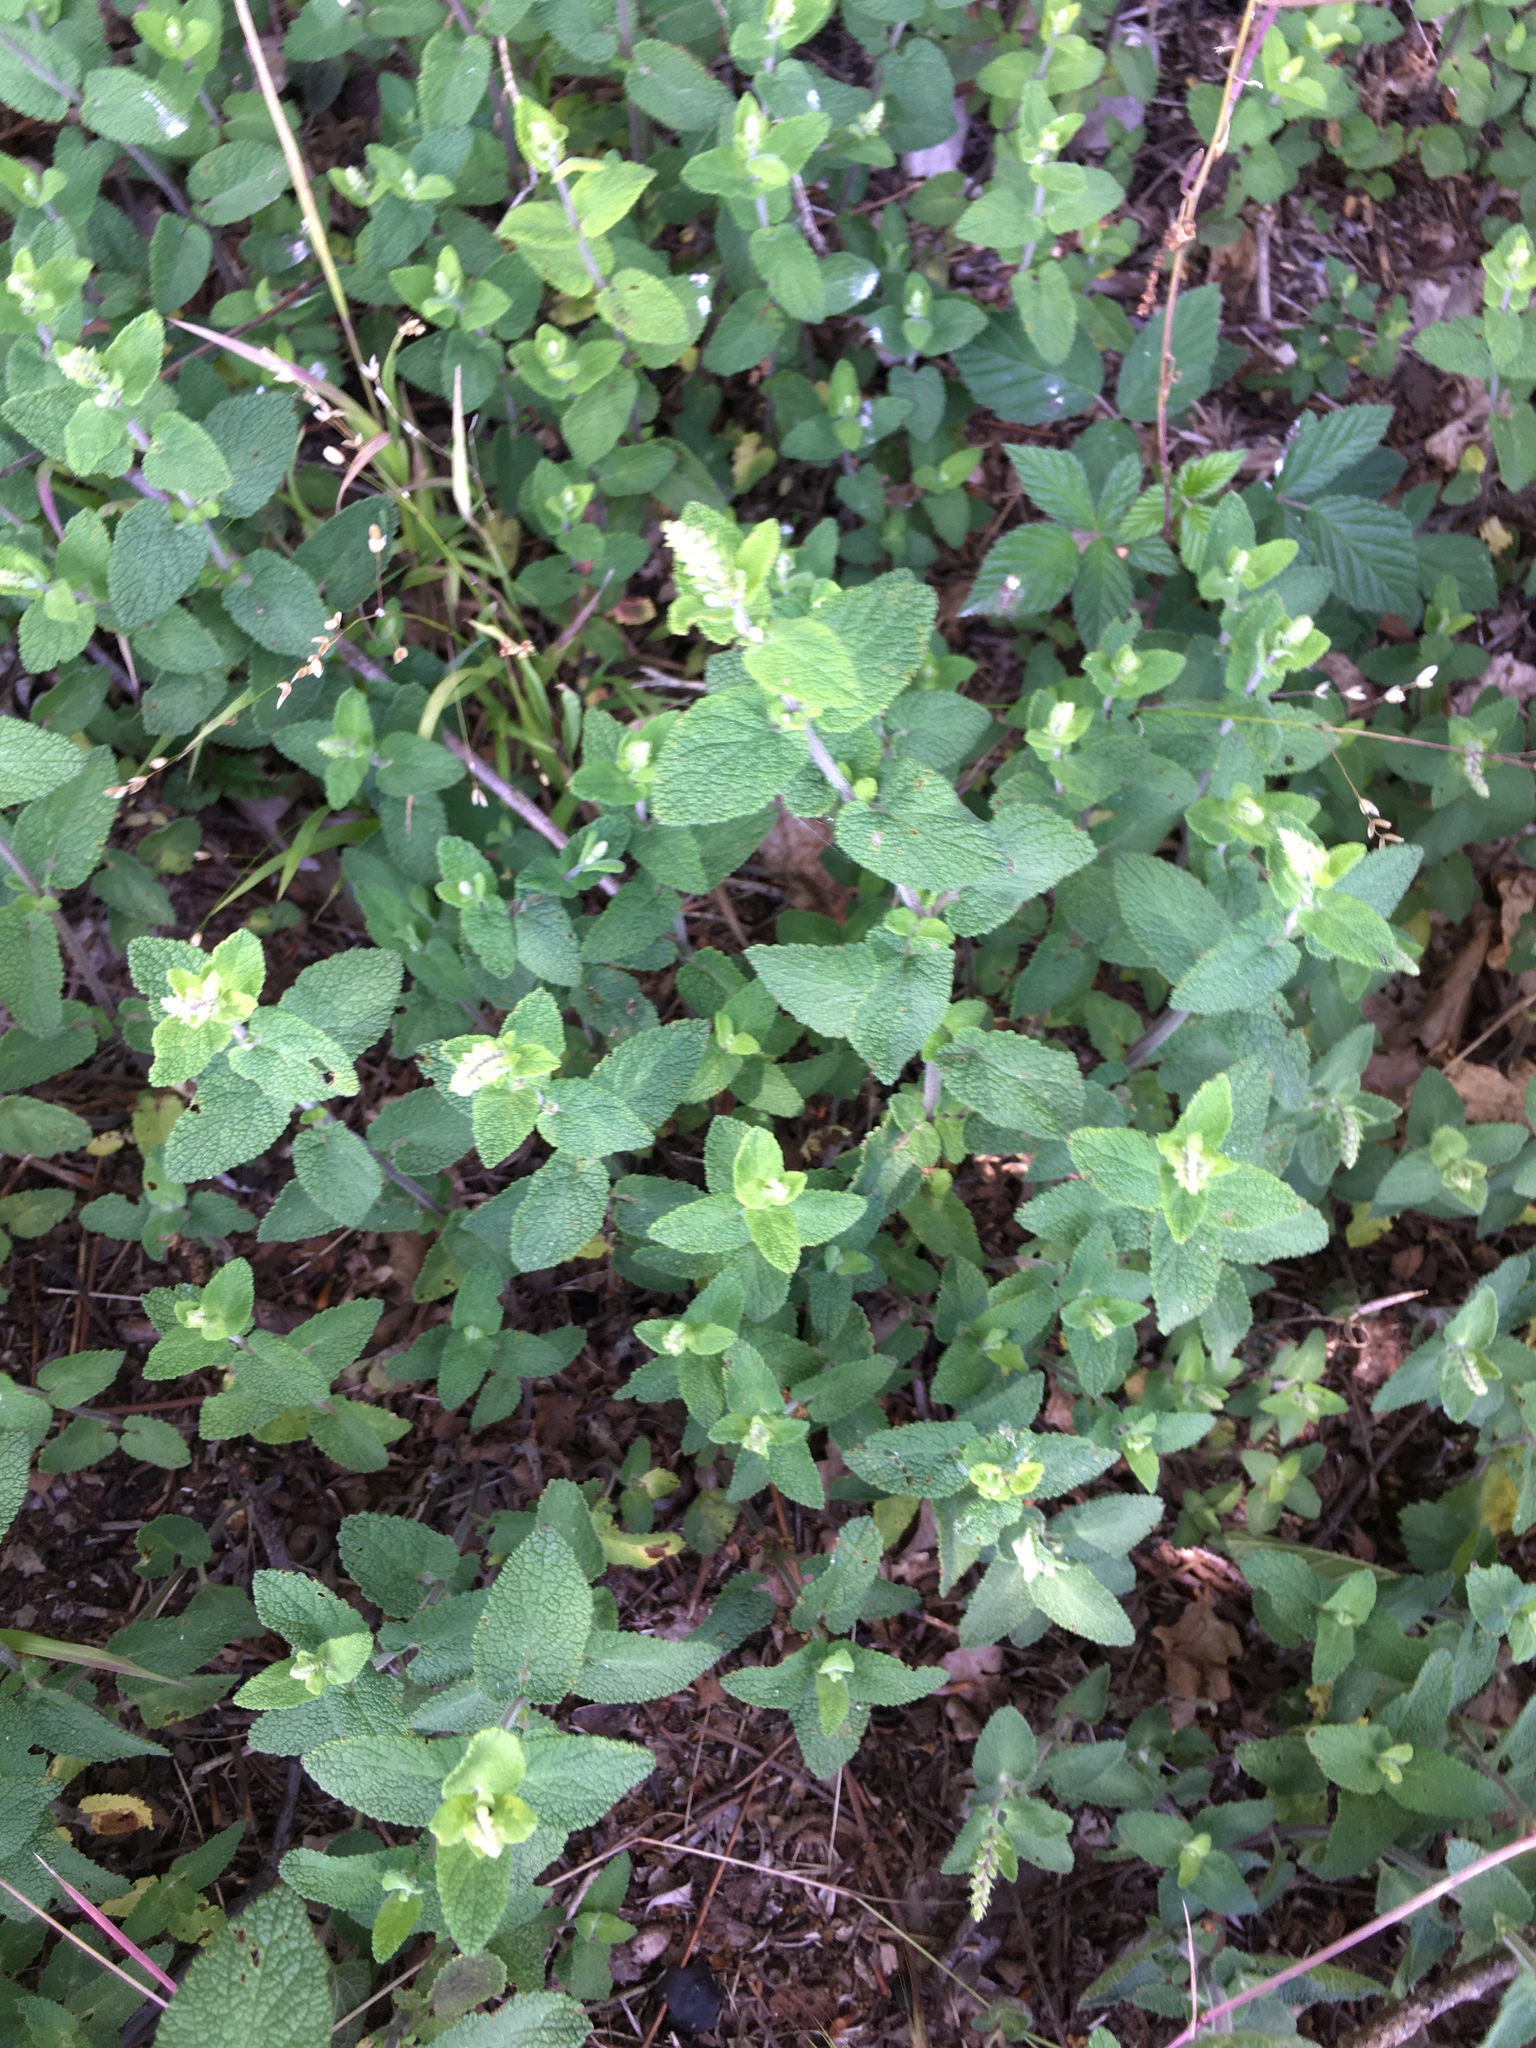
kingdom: Plantae
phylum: Tracheophyta
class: Magnoliopsida
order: Lamiales
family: Lamiaceae
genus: Origanum
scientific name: Origanum vulgare
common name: Wild marjoram
